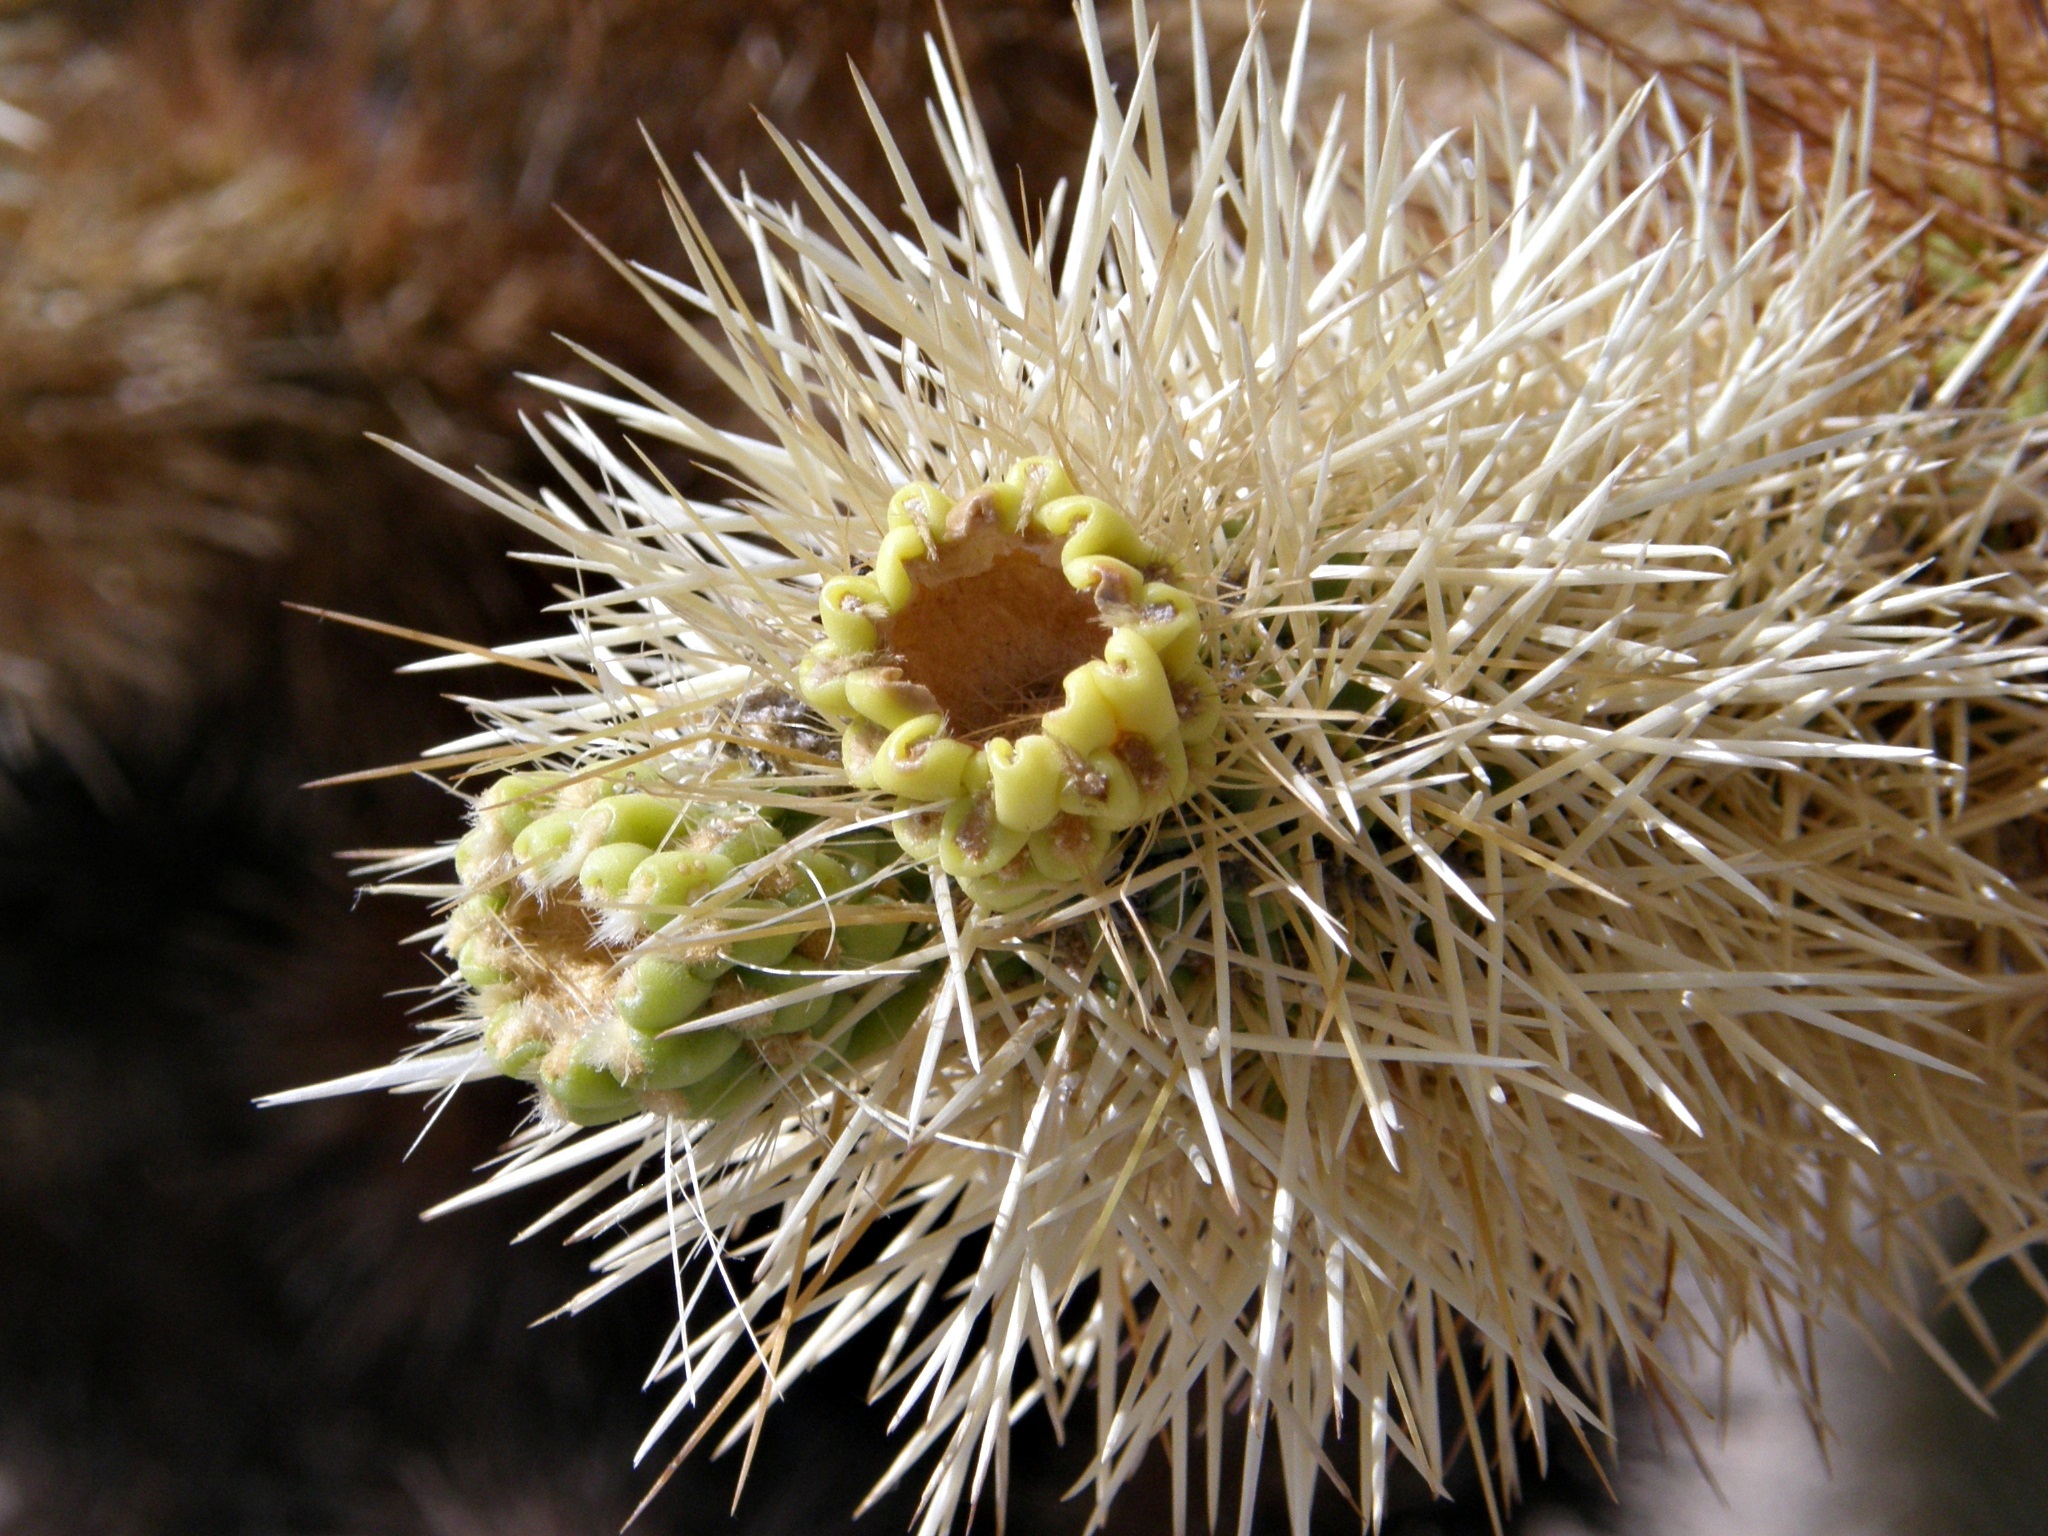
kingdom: Plantae
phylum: Tracheophyta
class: Magnoliopsida
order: Caryophyllales
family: Cactaceae
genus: Cylindropuntia
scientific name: Cylindropuntia fosbergii
